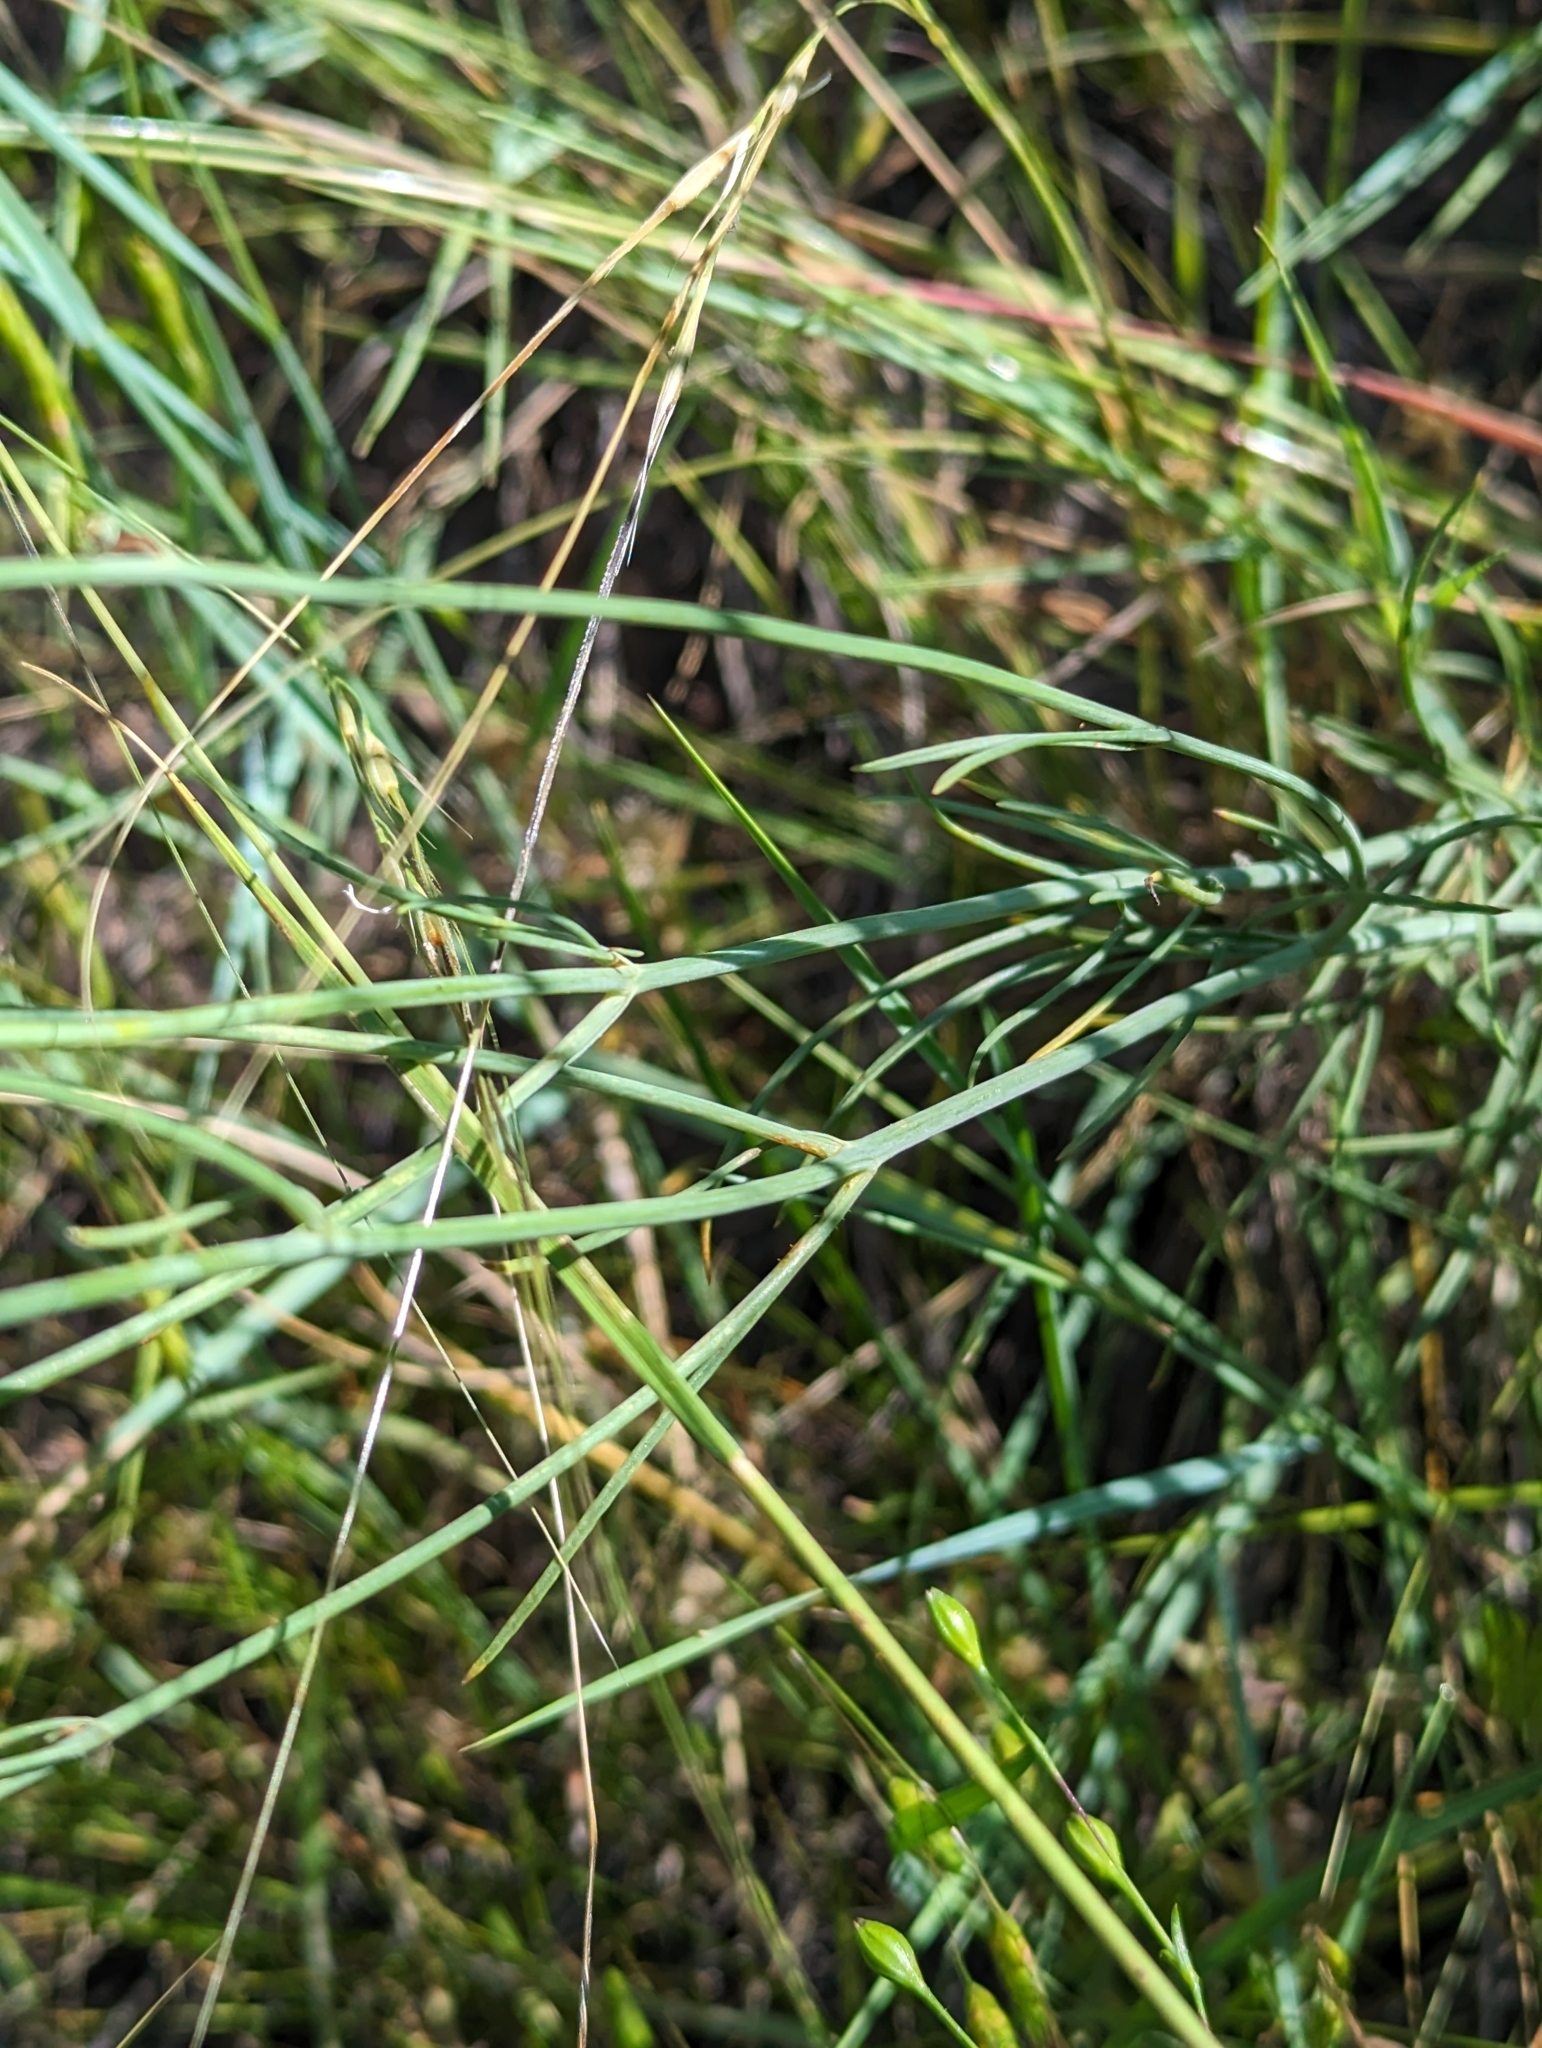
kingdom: Plantae
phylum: Tracheophyta
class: Magnoliopsida
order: Asterales
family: Asteraceae
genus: Thelesperma
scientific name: Thelesperma megapotamicum
